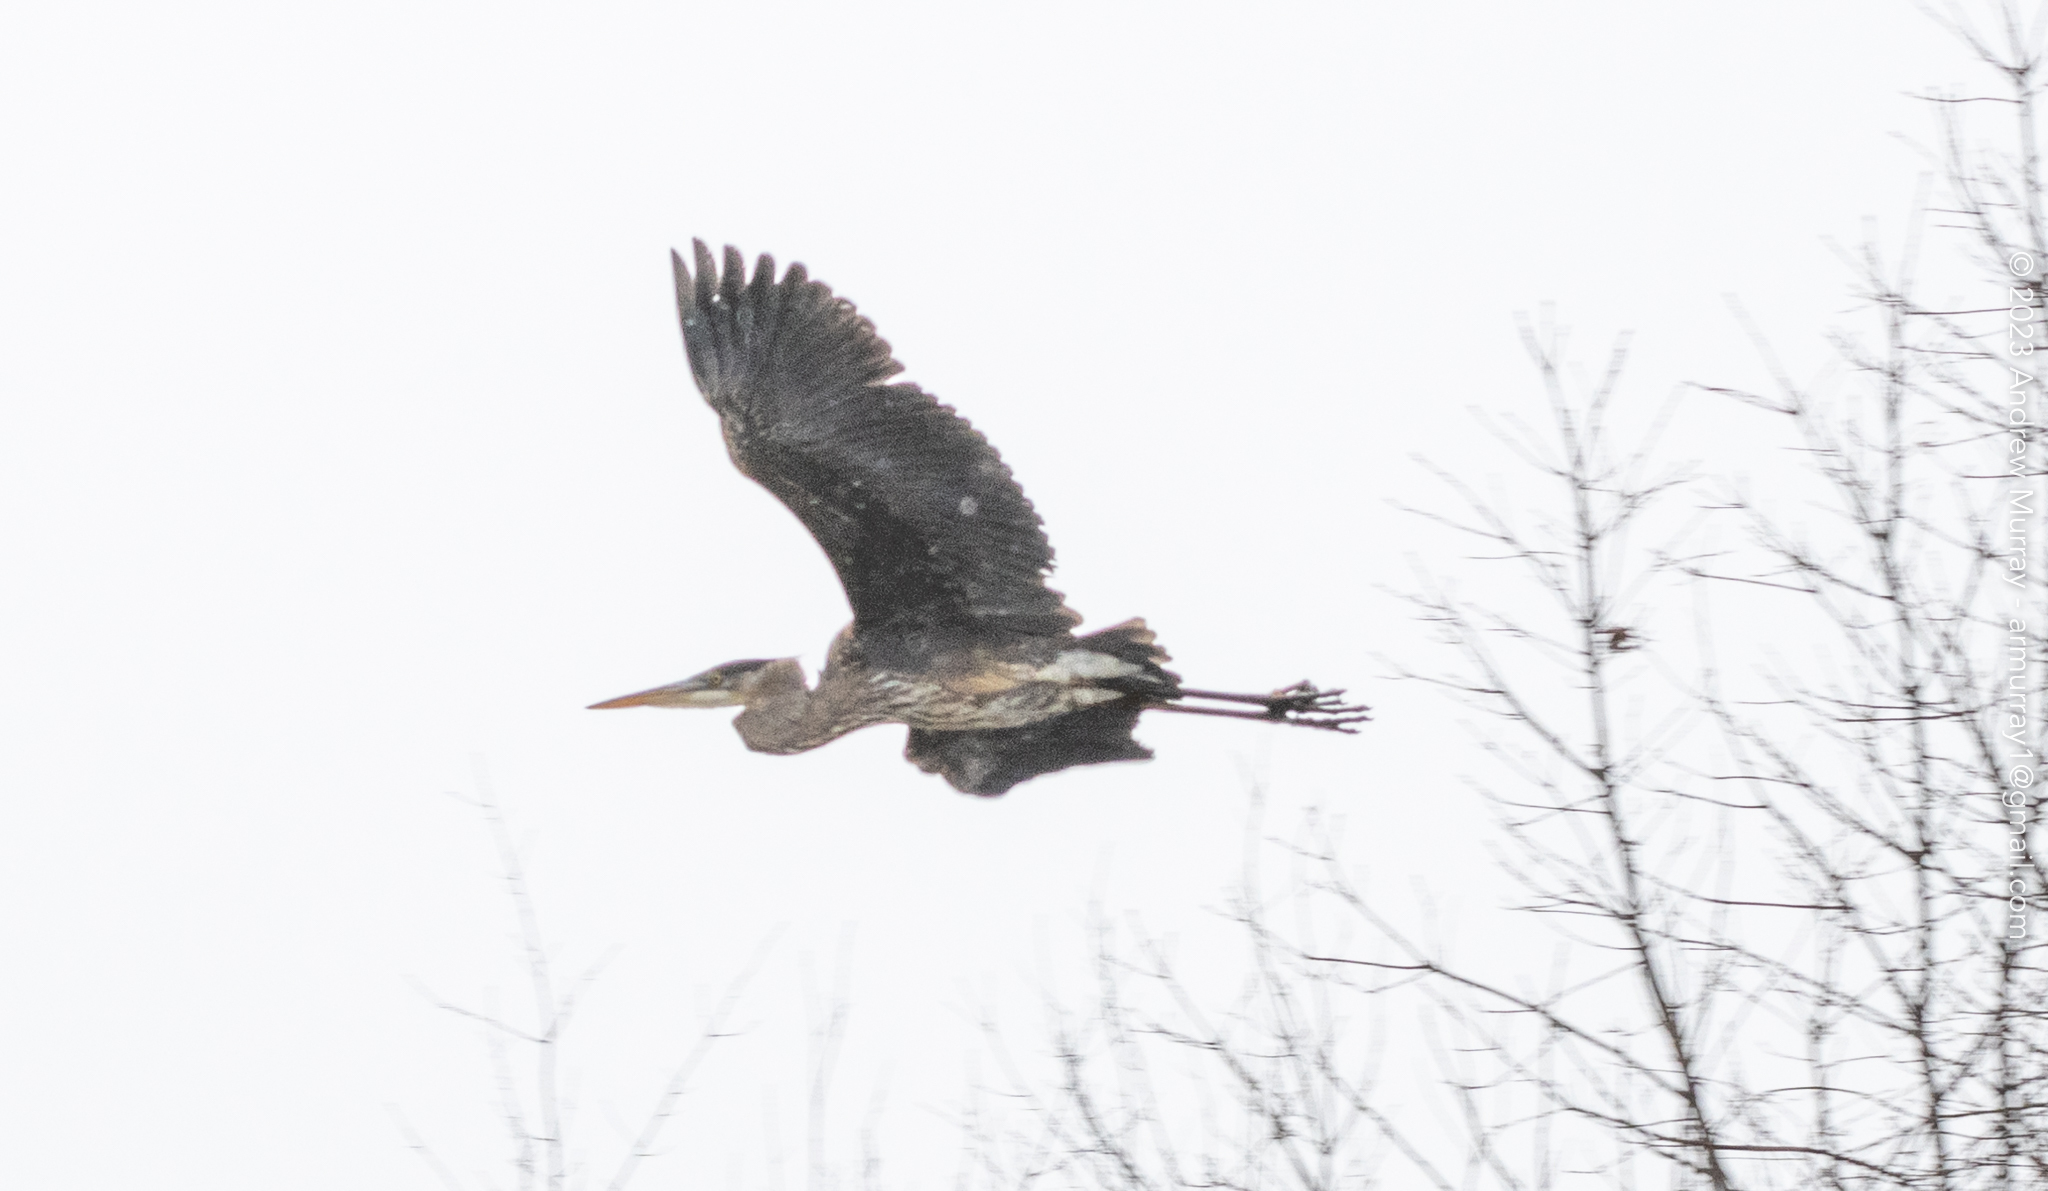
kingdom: Animalia
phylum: Chordata
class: Aves
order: Pelecaniformes
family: Ardeidae
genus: Ardea
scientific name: Ardea herodias
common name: Great blue heron
